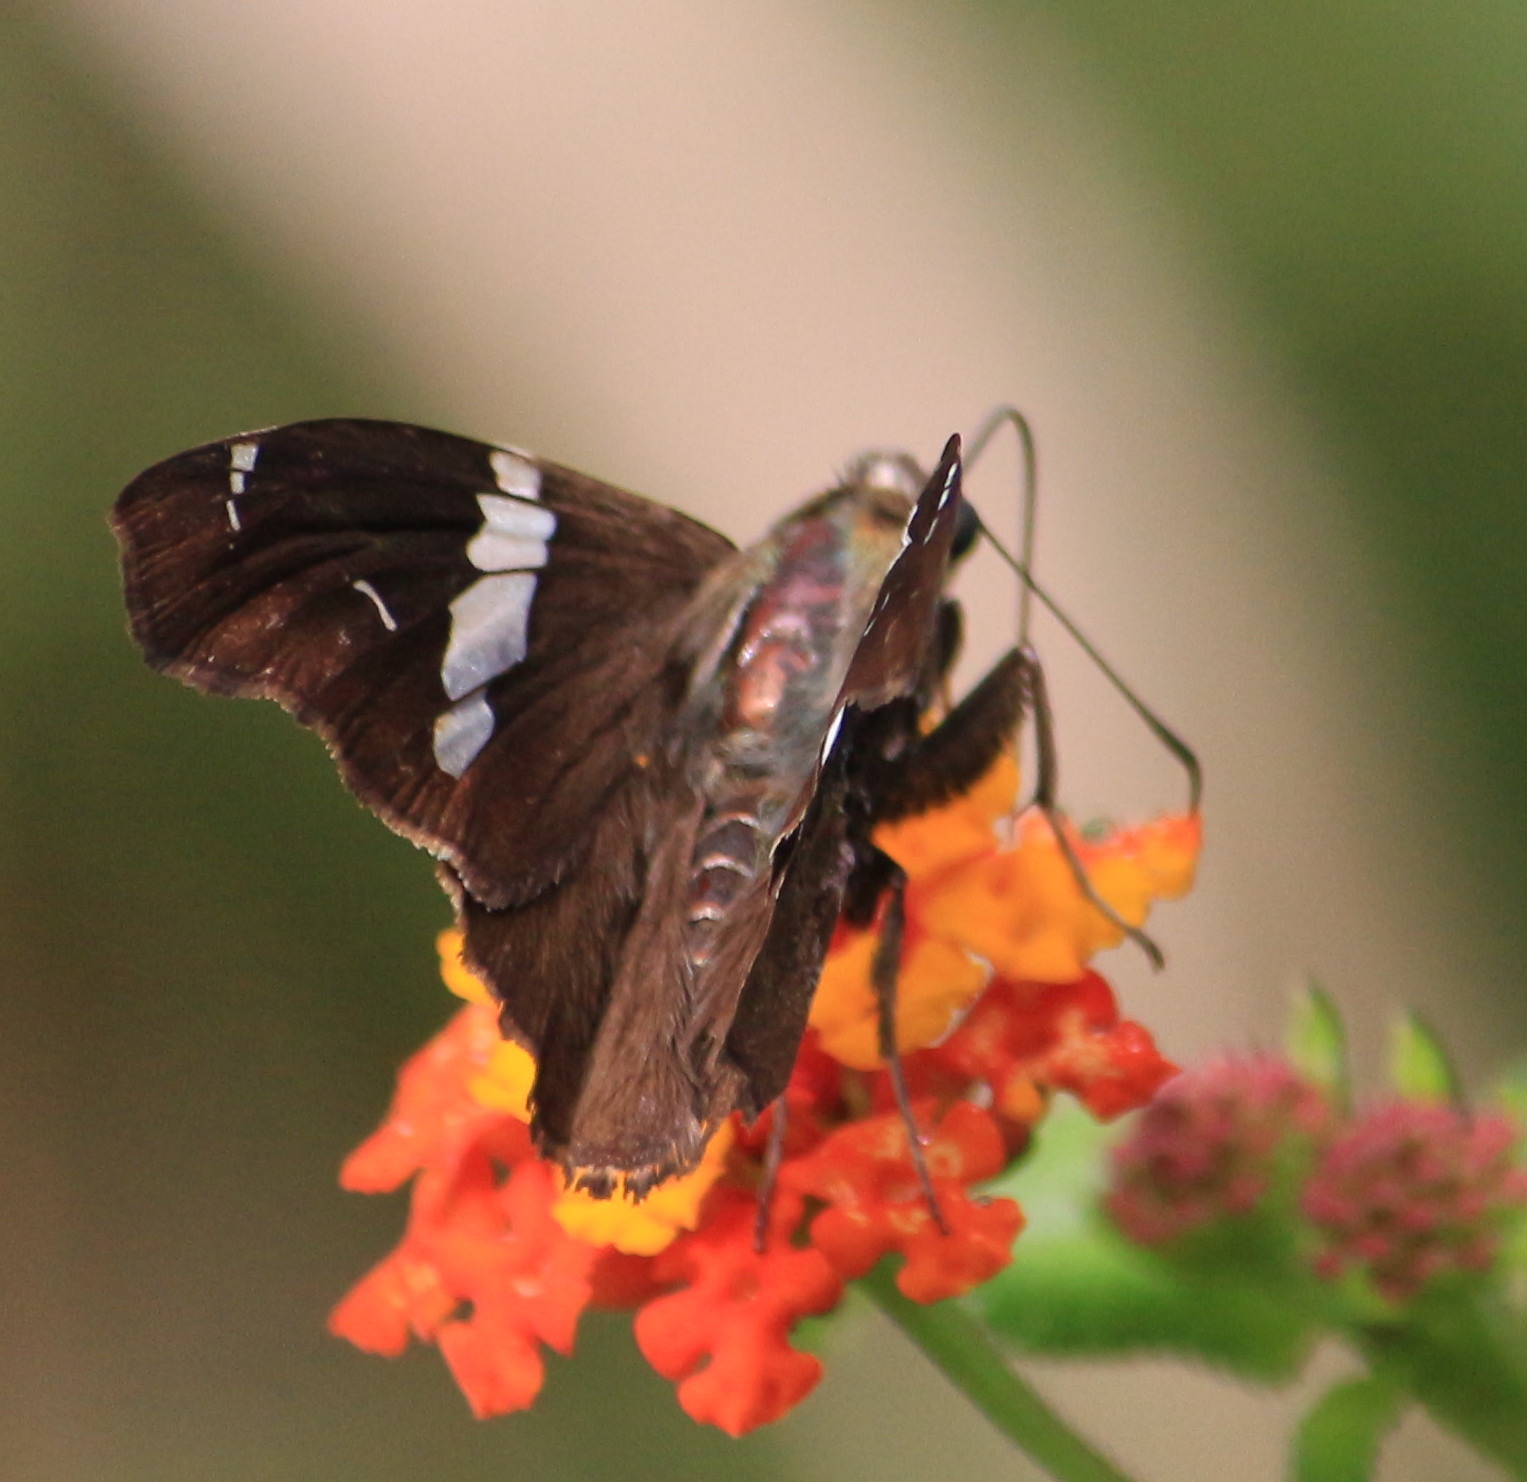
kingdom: Animalia
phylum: Arthropoda
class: Insecta
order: Lepidoptera
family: Hesperiidae
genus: Spathilepia
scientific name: Spathilepia clonius
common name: Falcate skipper
